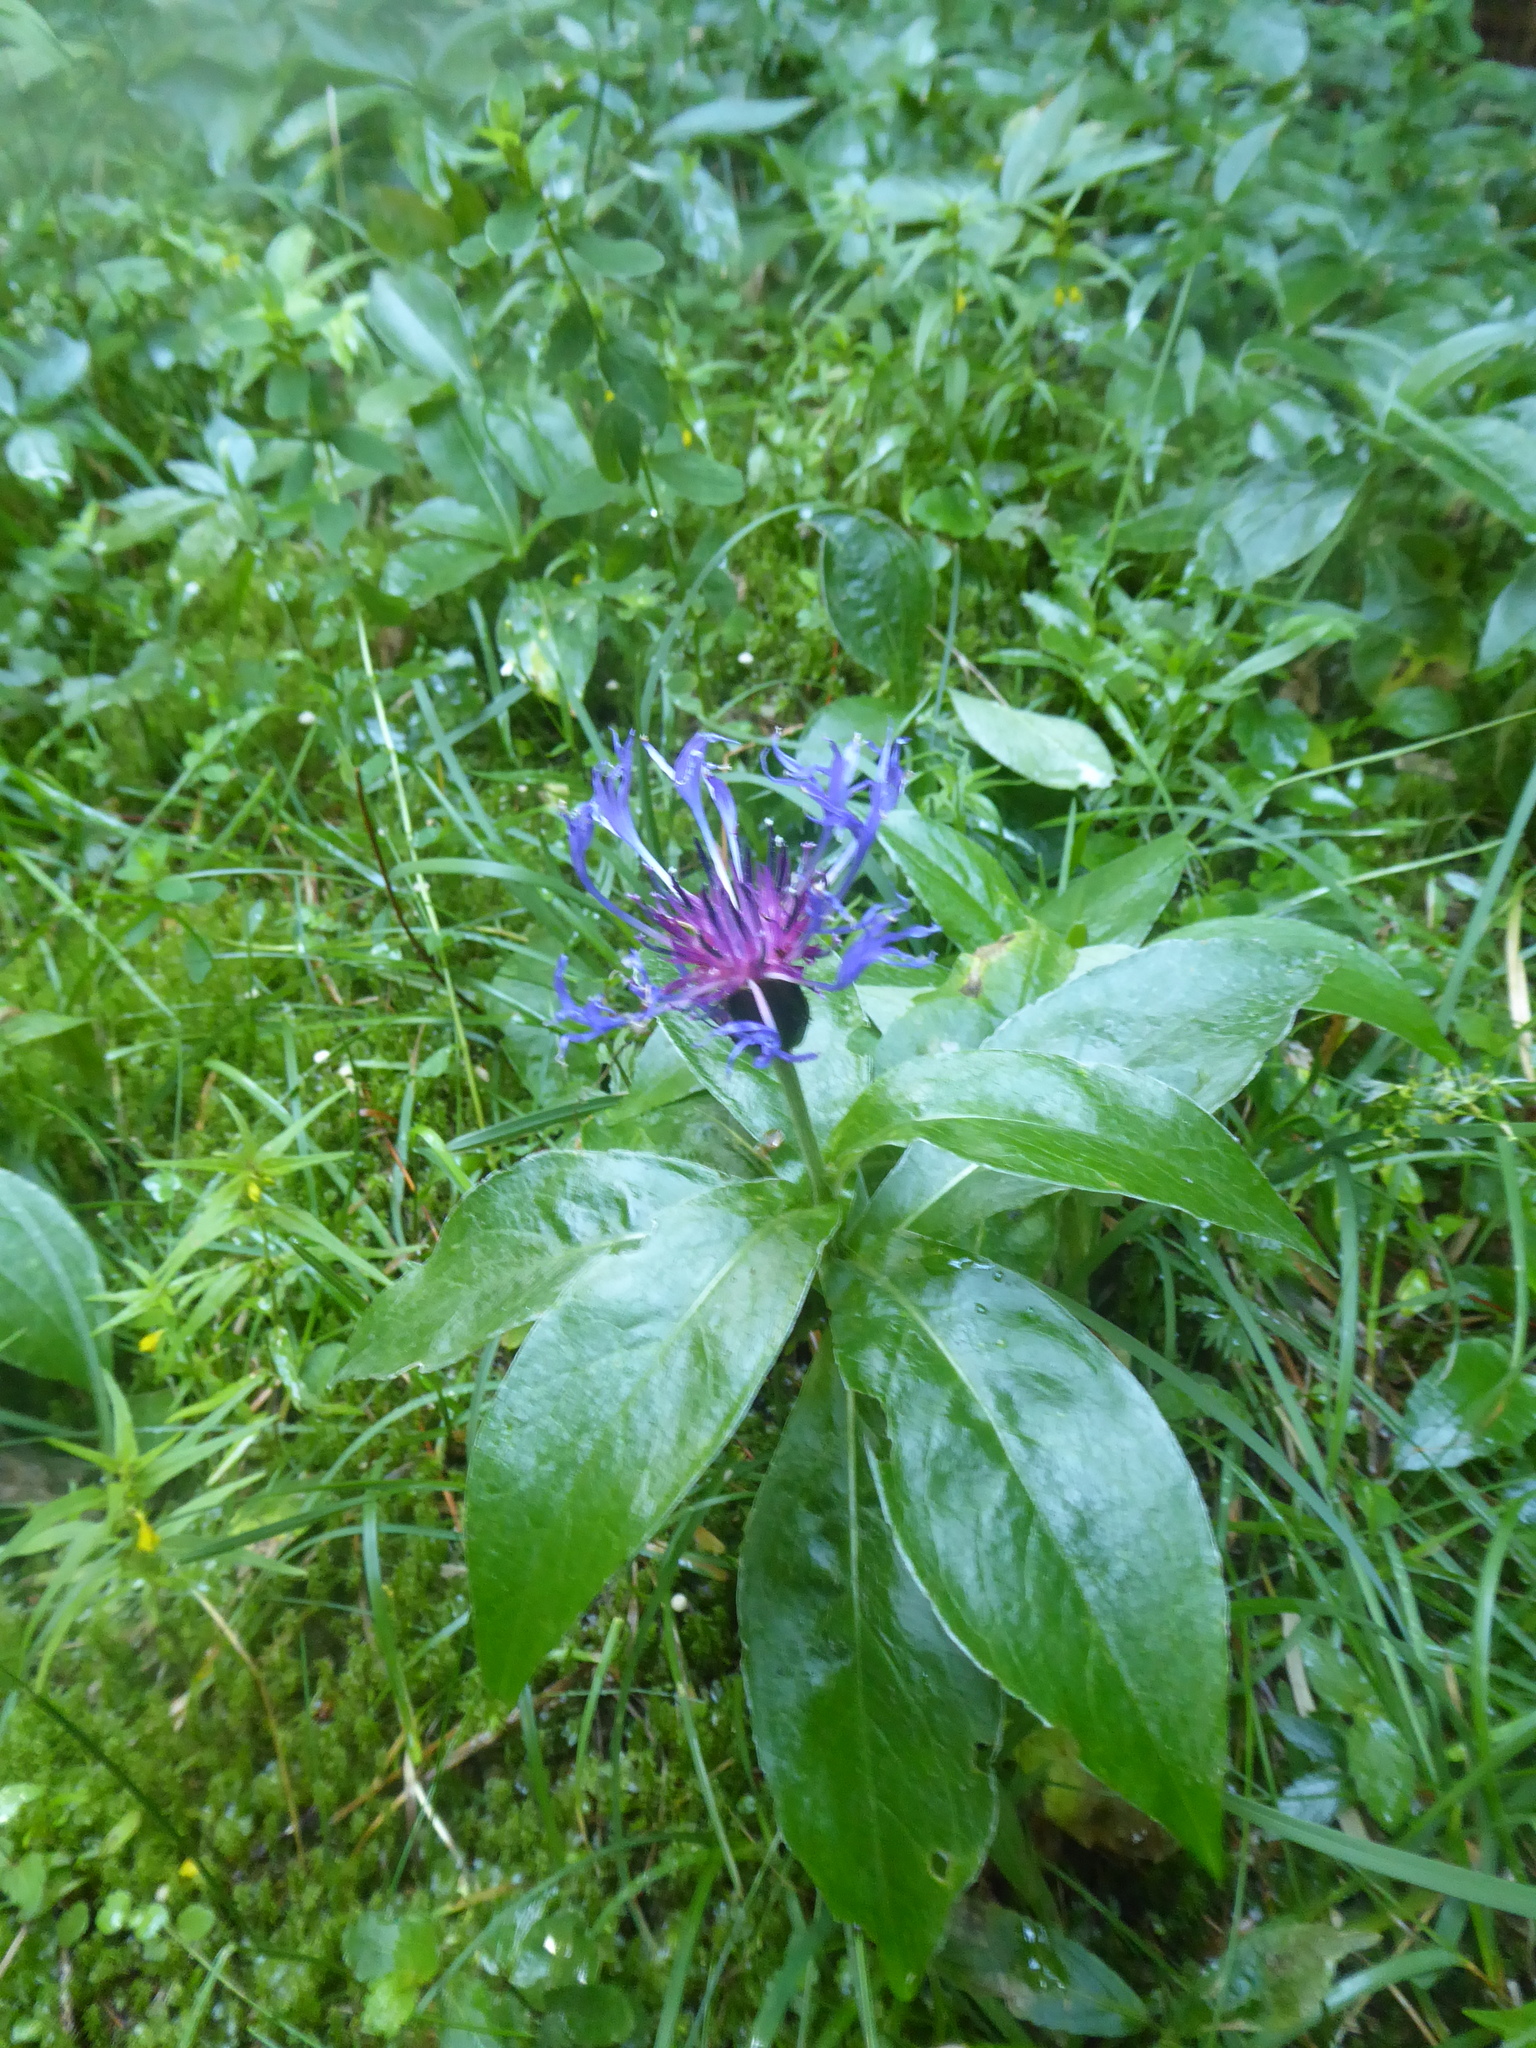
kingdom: Plantae
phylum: Tracheophyta
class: Magnoliopsida
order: Asterales
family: Asteraceae
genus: Centaurea
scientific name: Centaurea montana
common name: Perennial cornflower
